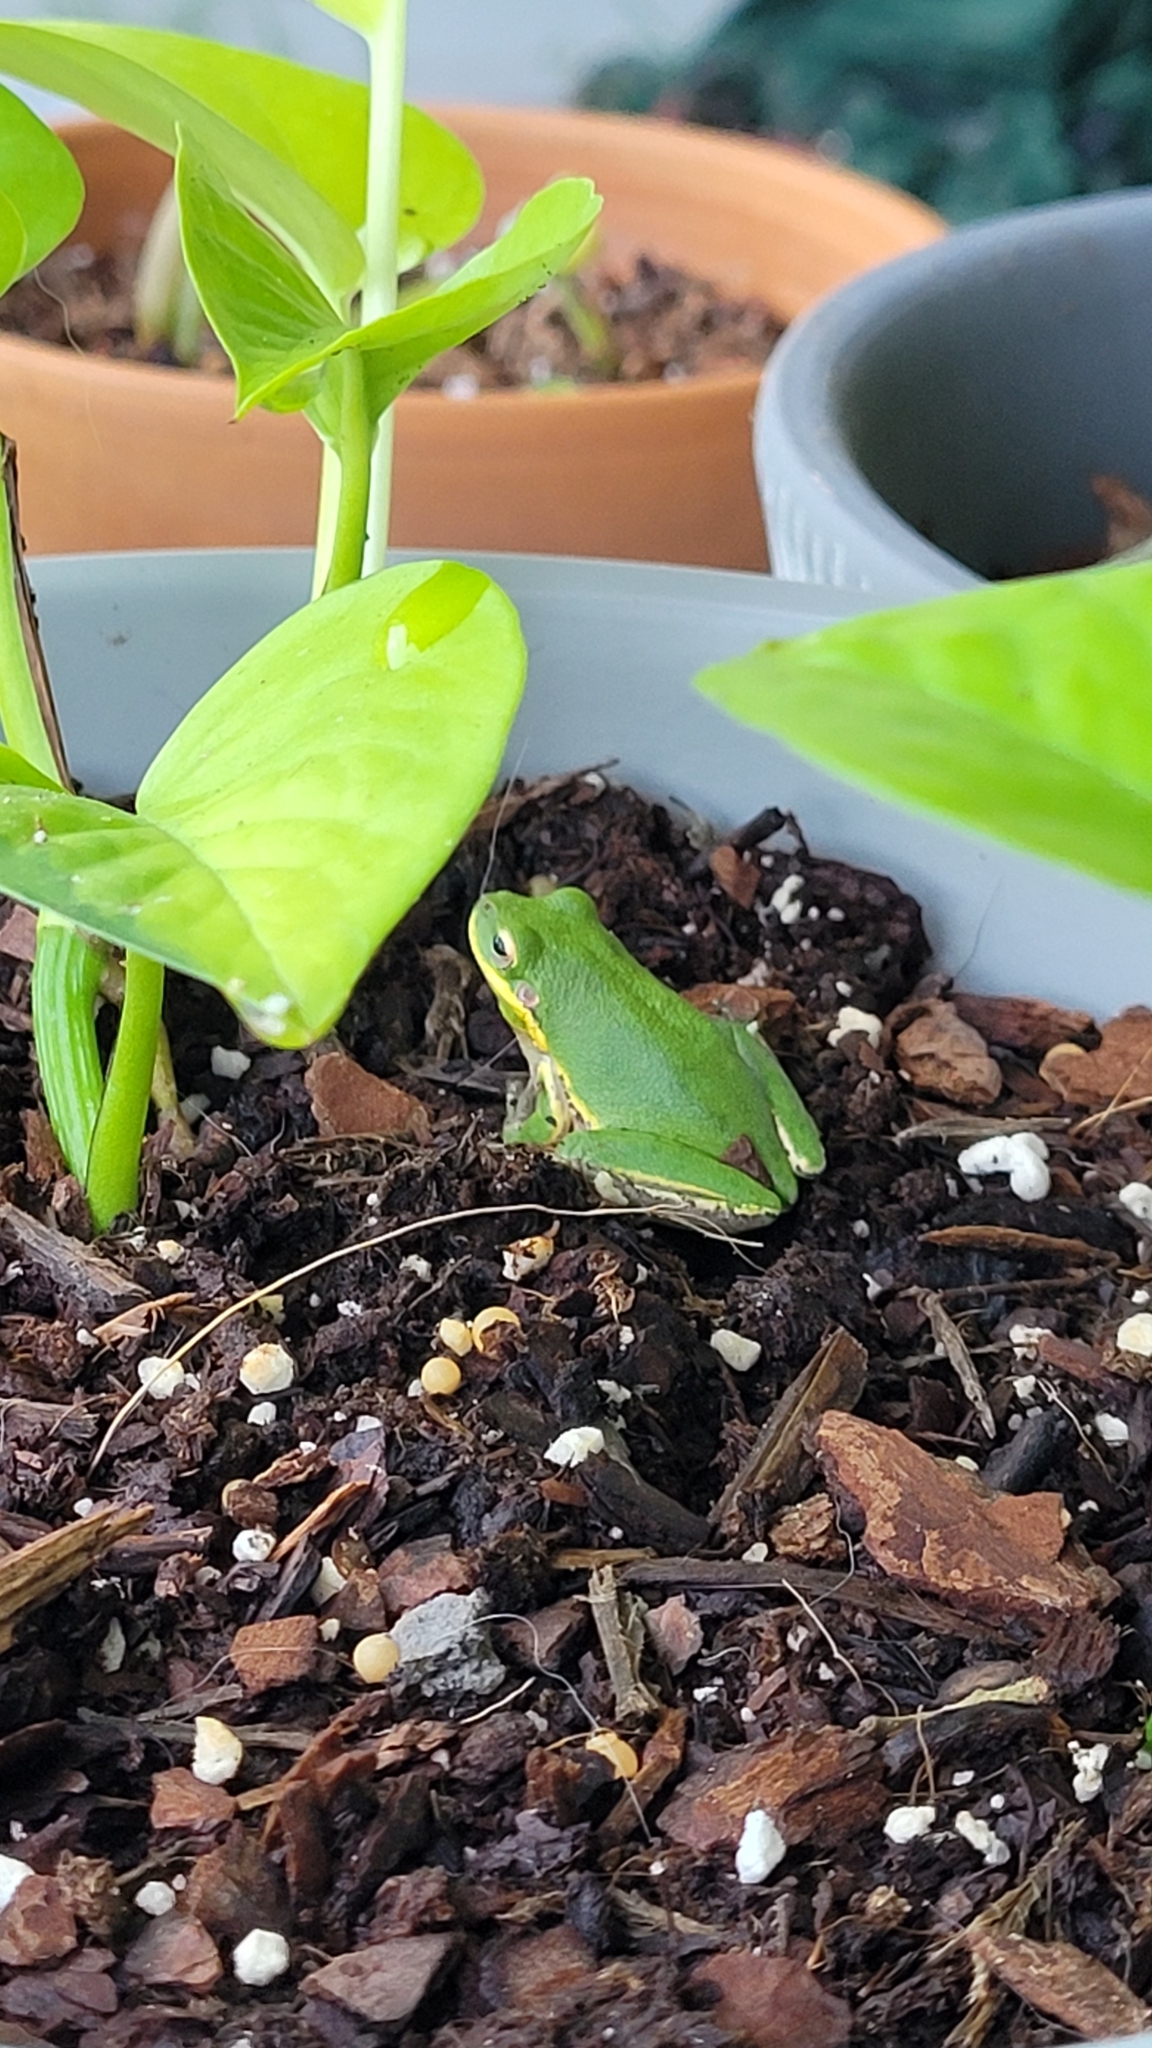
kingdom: Animalia
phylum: Chordata
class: Amphibia
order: Anura
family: Hylidae
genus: Dryophytes
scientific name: Dryophytes squirellus
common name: Squirrel treefrog
